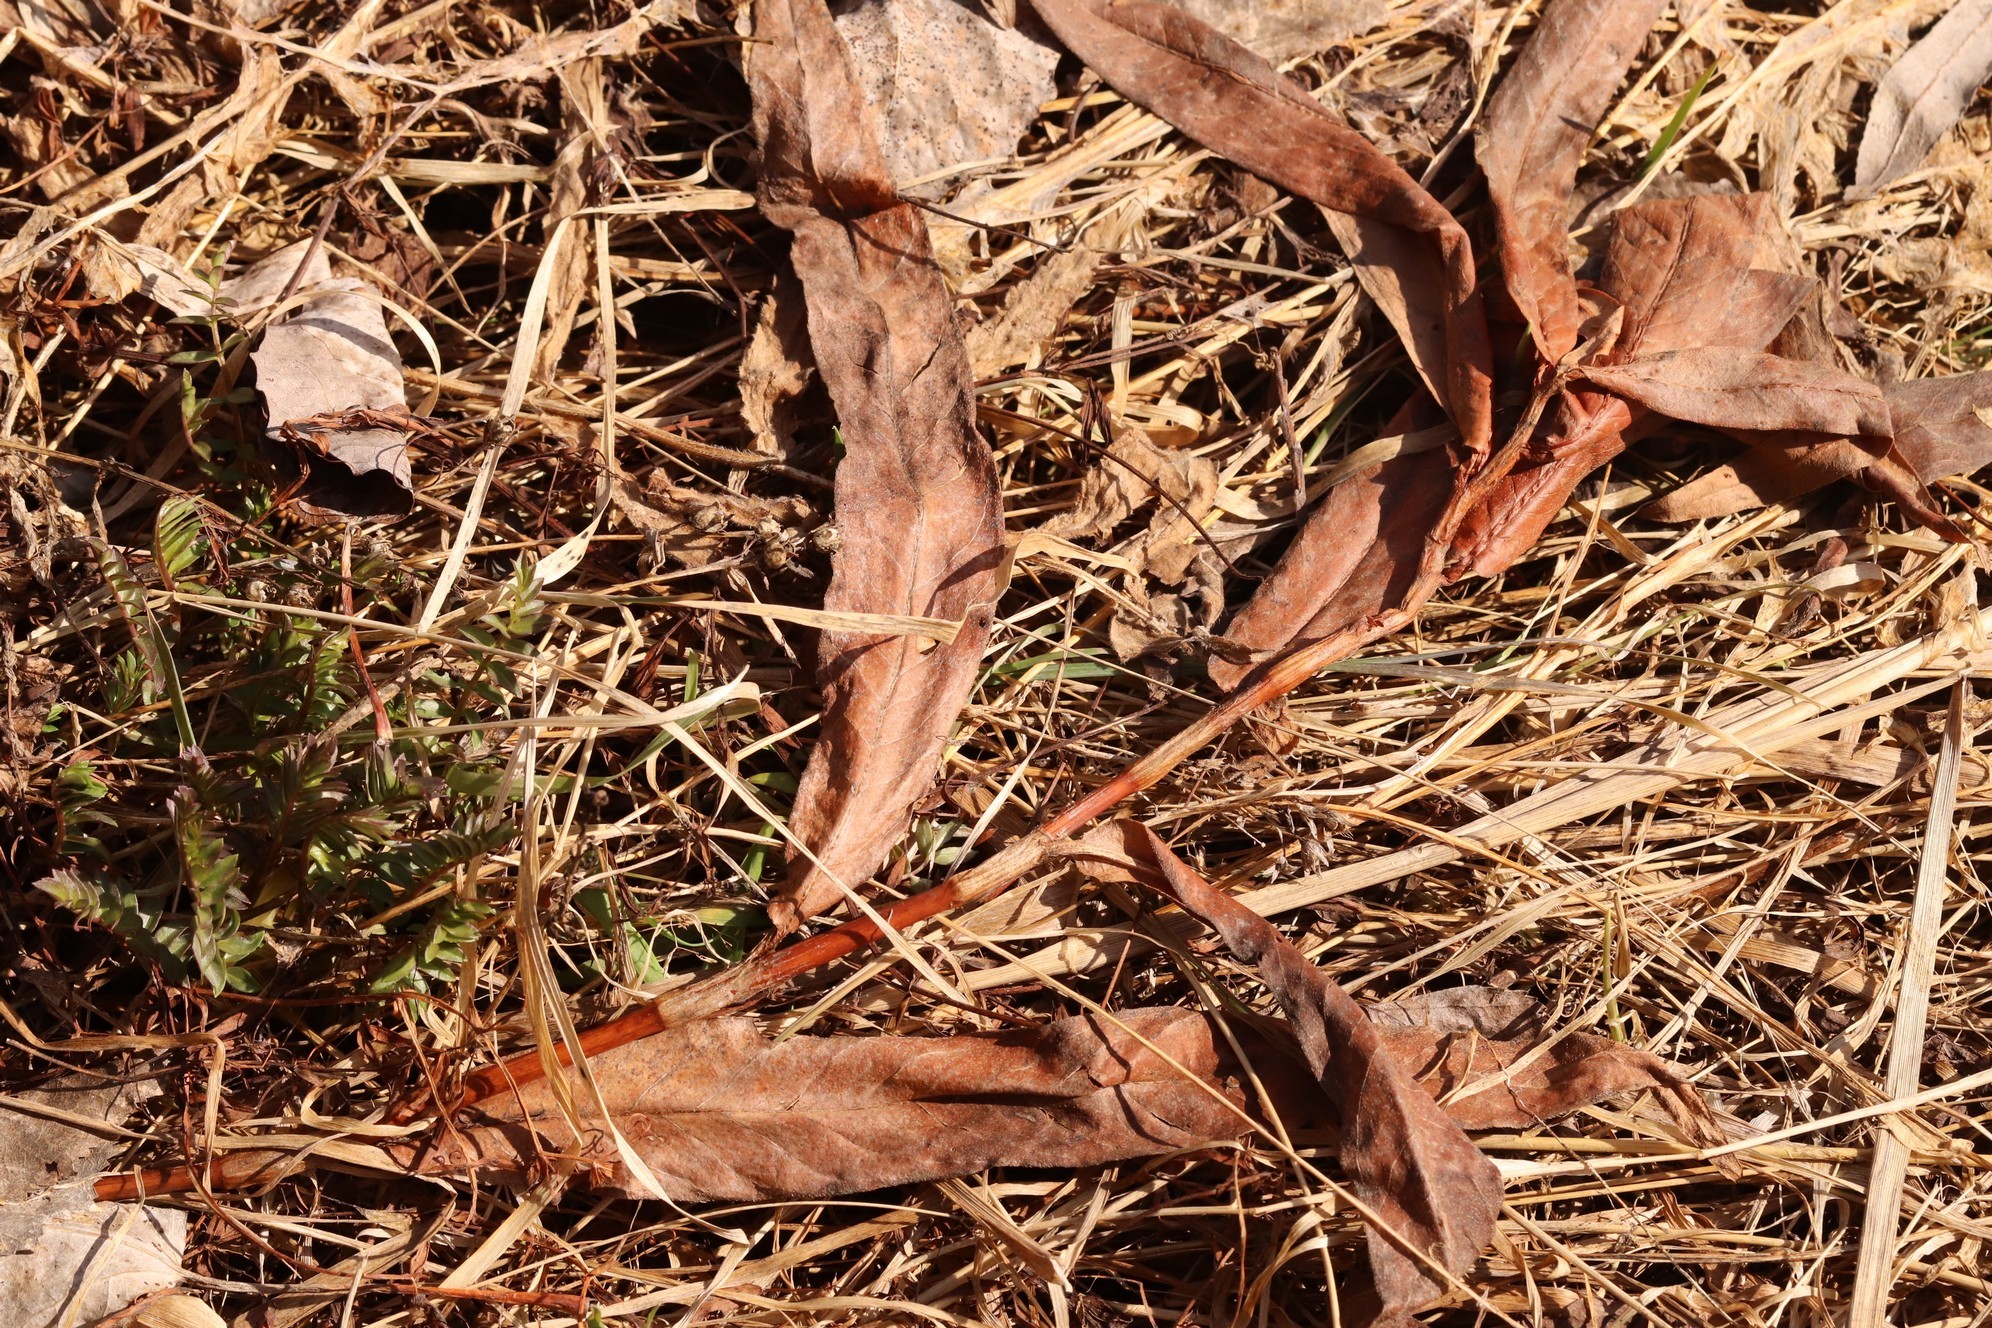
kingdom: Plantae
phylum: Tracheophyta
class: Magnoliopsida
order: Caryophyllales
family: Polygonaceae
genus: Persicaria
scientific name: Persicaria amphibia
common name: Amphibious bistort
